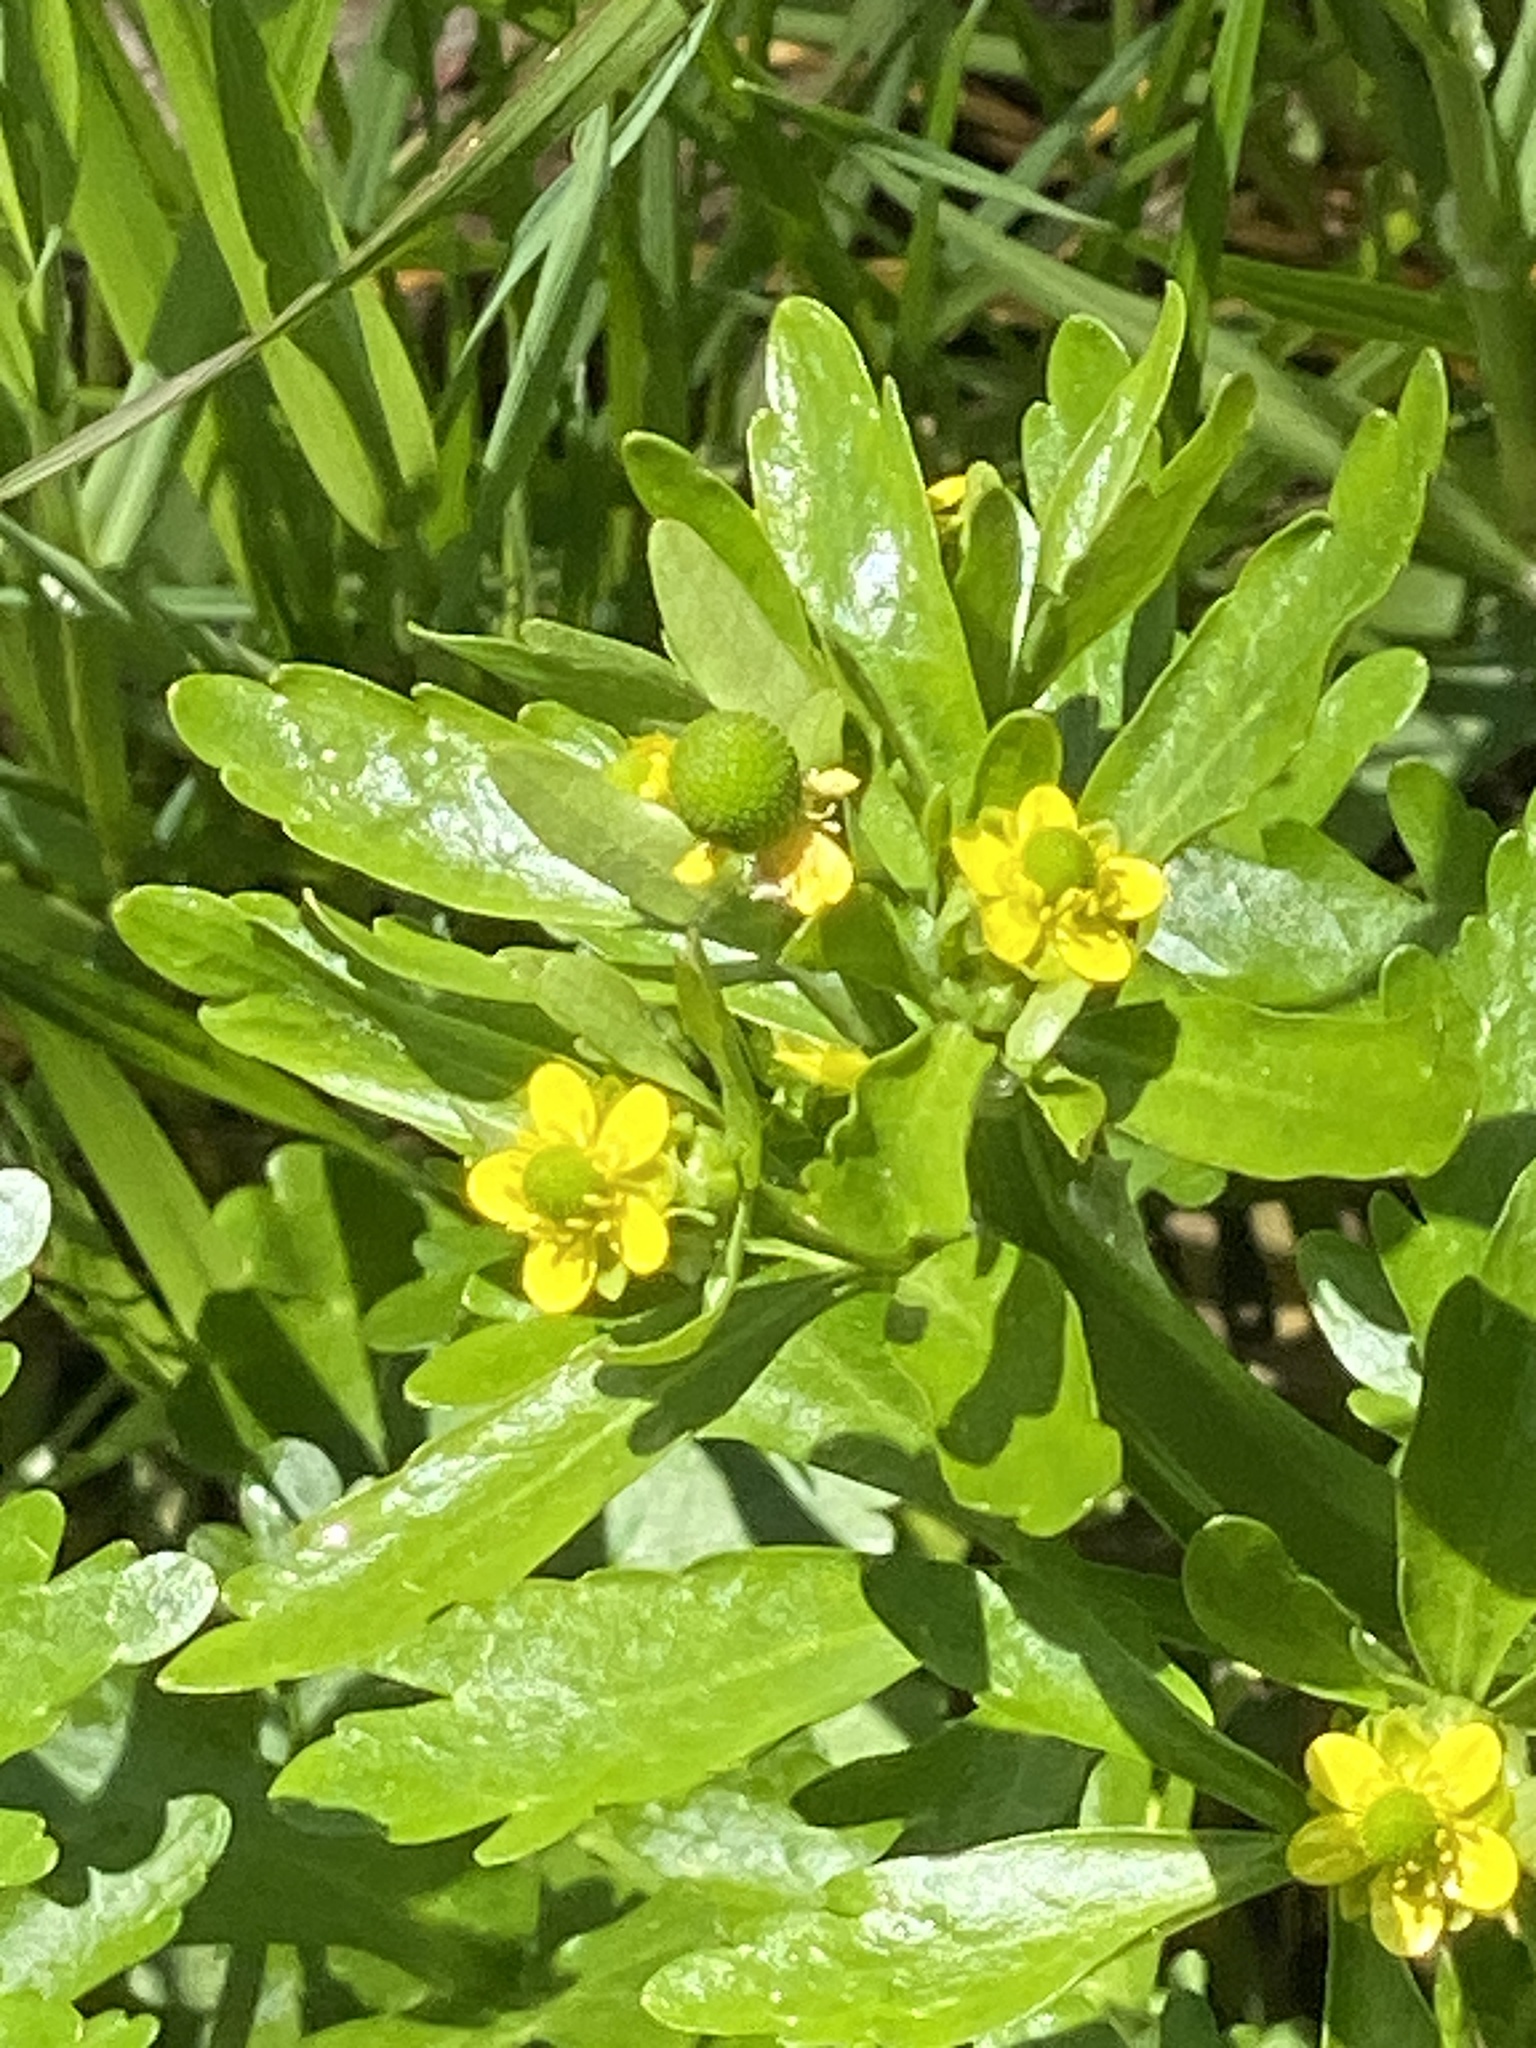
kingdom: Plantae
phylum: Tracheophyta
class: Magnoliopsida
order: Ranunculales
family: Ranunculaceae
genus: Ranunculus
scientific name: Ranunculus sceleratus
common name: Celery-leaved buttercup
